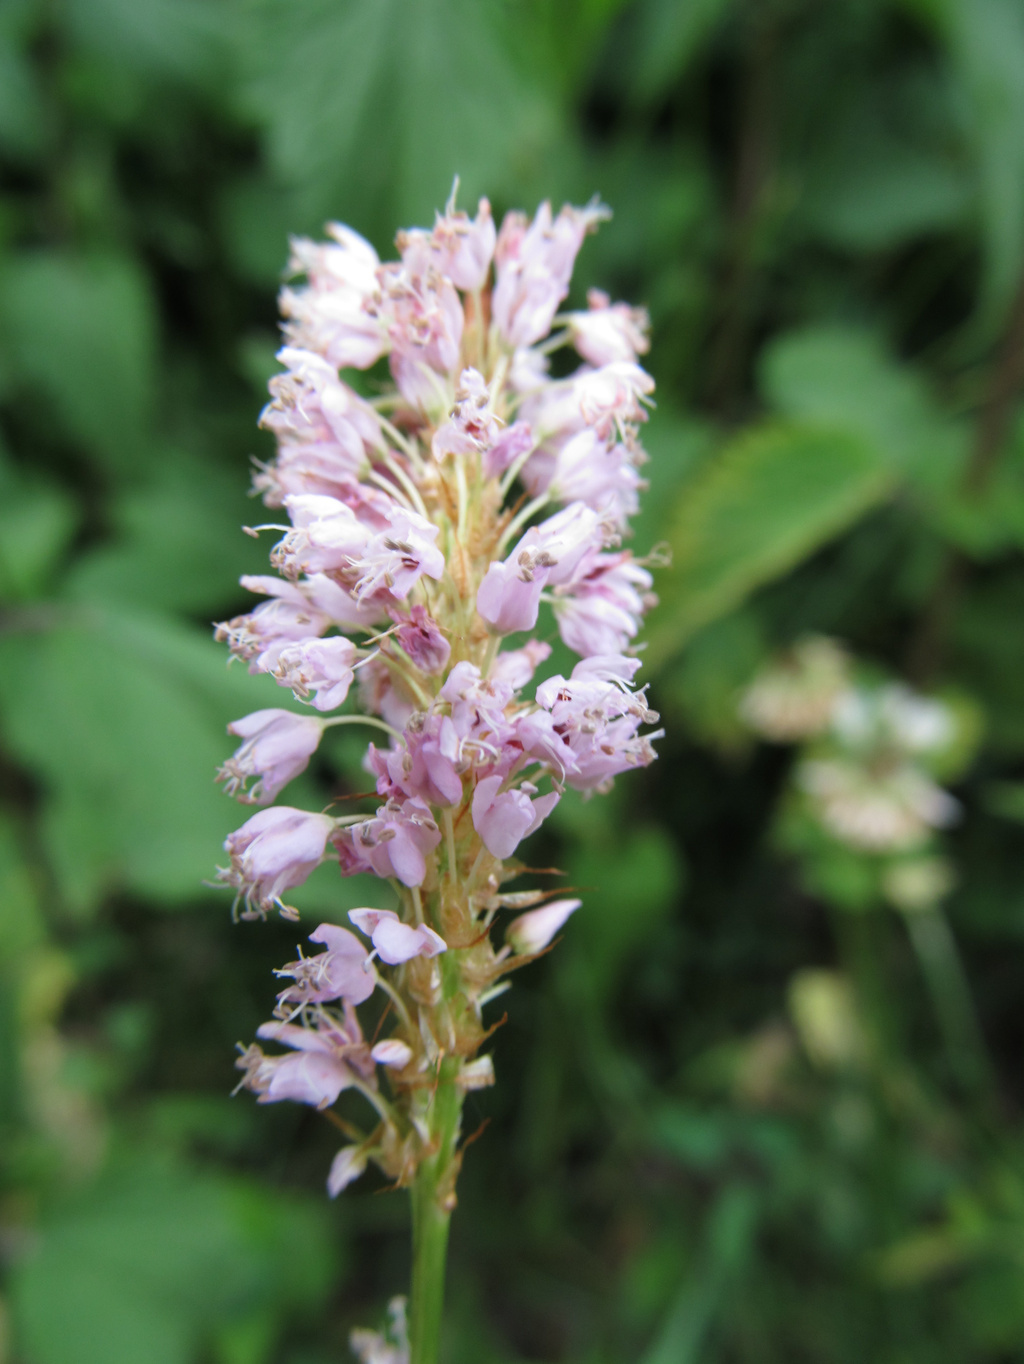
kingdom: Plantae
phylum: Tracheophyta
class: Magnoliopsida
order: Caryophyllales
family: Polygonaceae
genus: Bistorta
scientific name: Bistorta officinalis
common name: Common bistort
